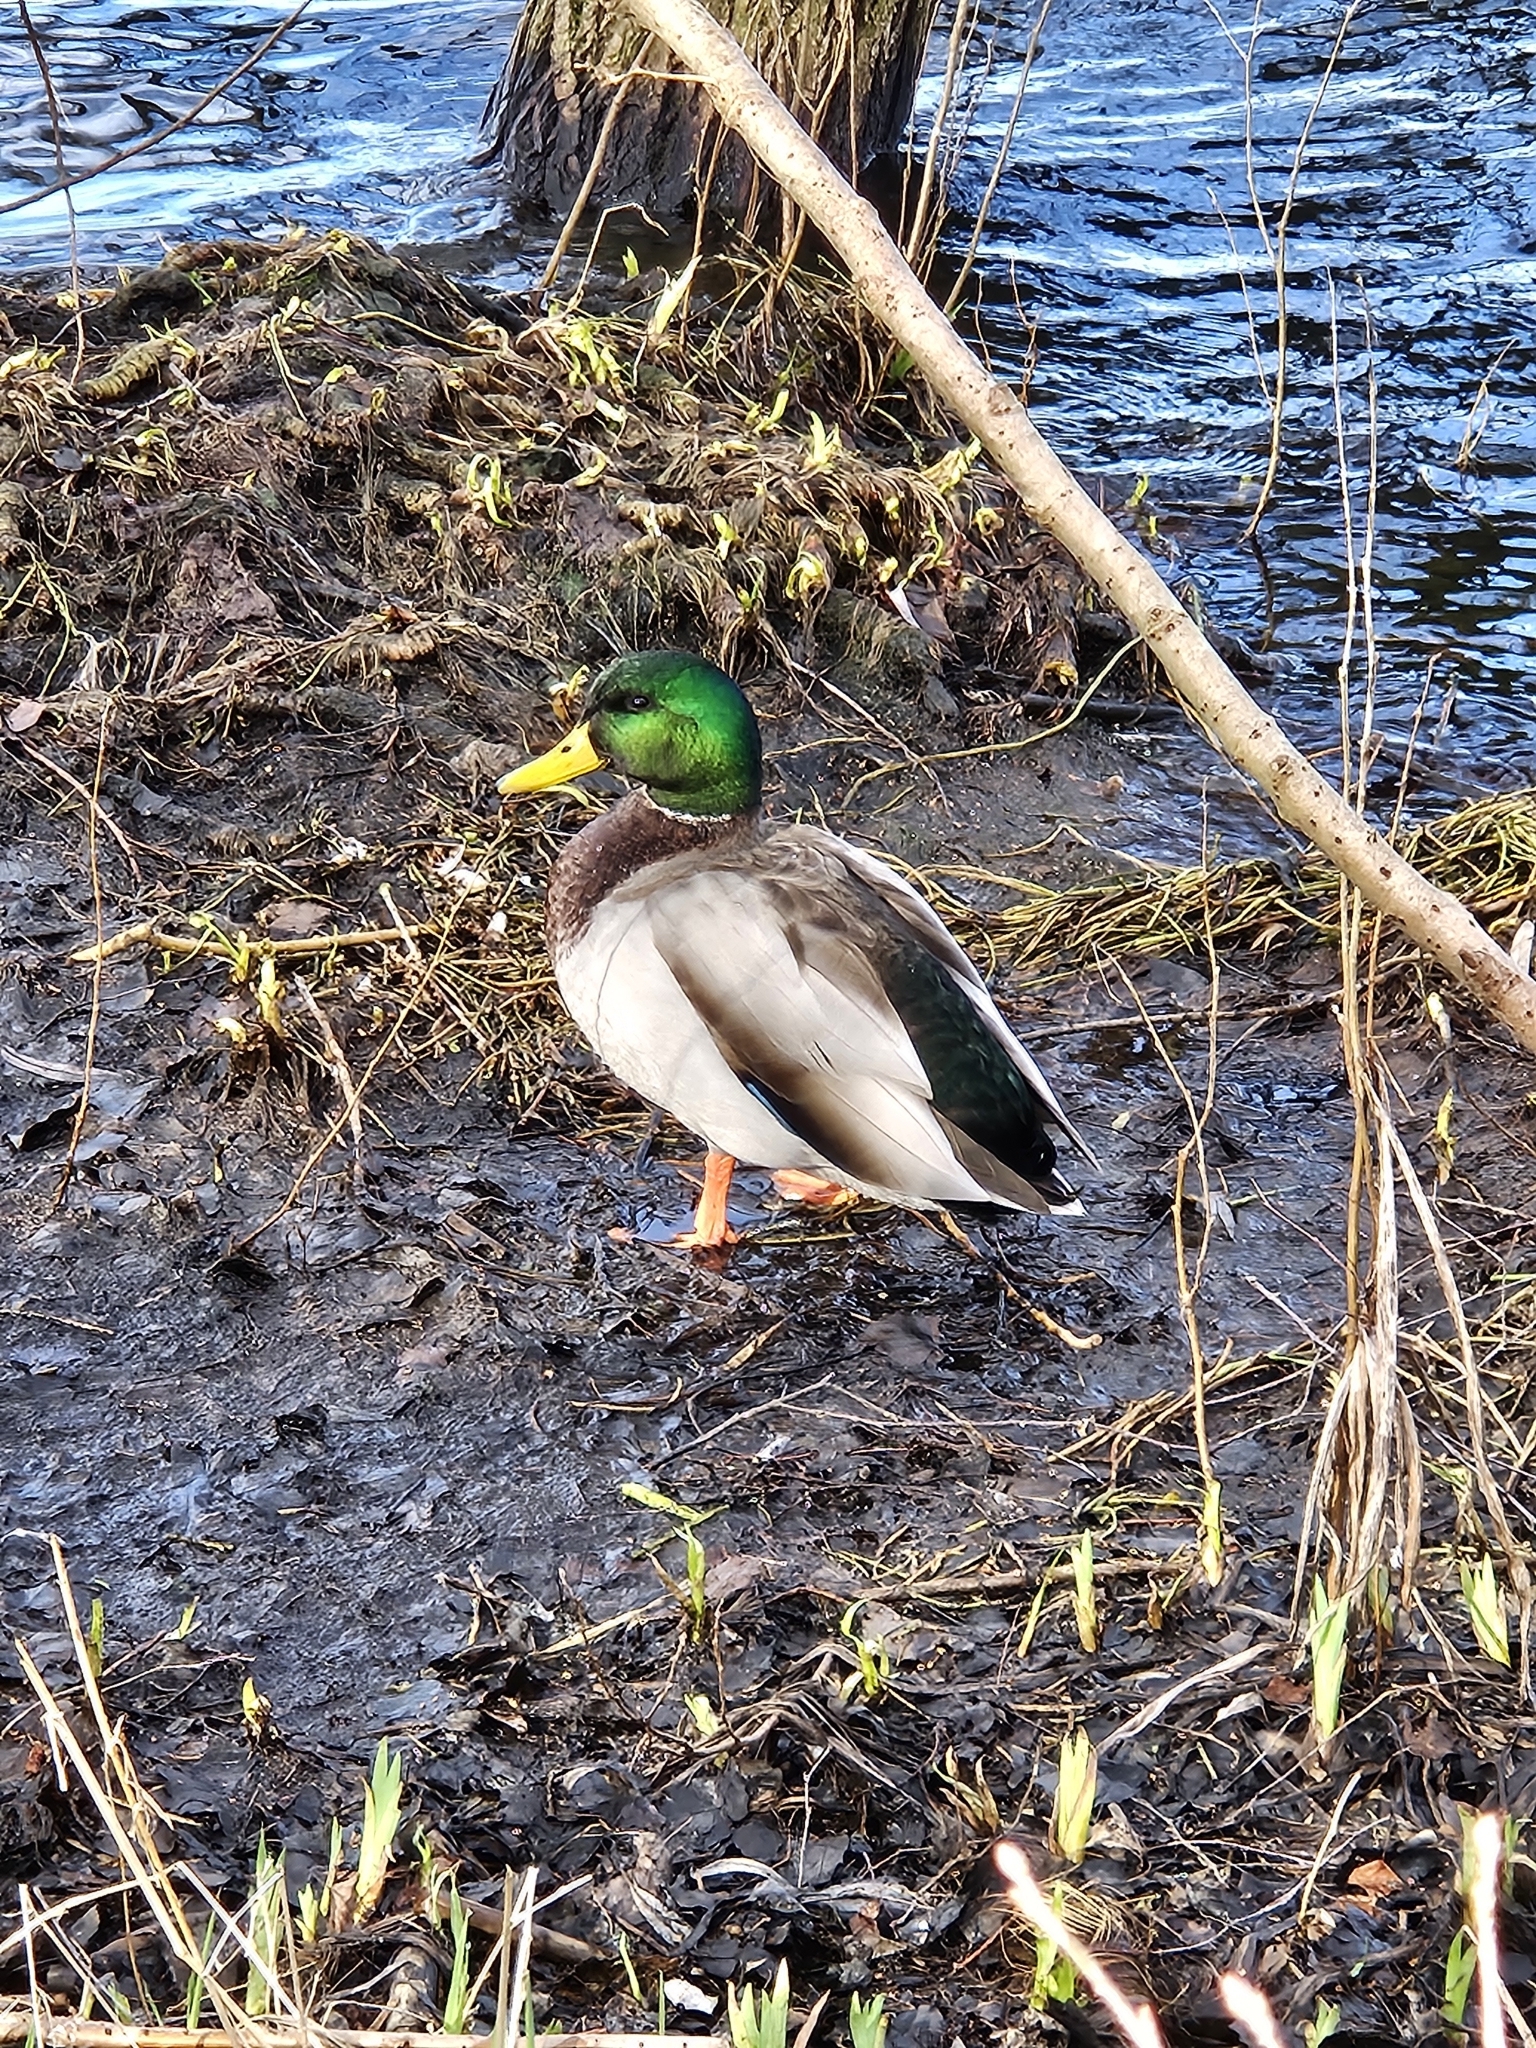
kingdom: Animalia
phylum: Chordata
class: Aves
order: Anseriformes
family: Anatidae
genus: Anas
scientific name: Anas platyrhynchos
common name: Mallard
